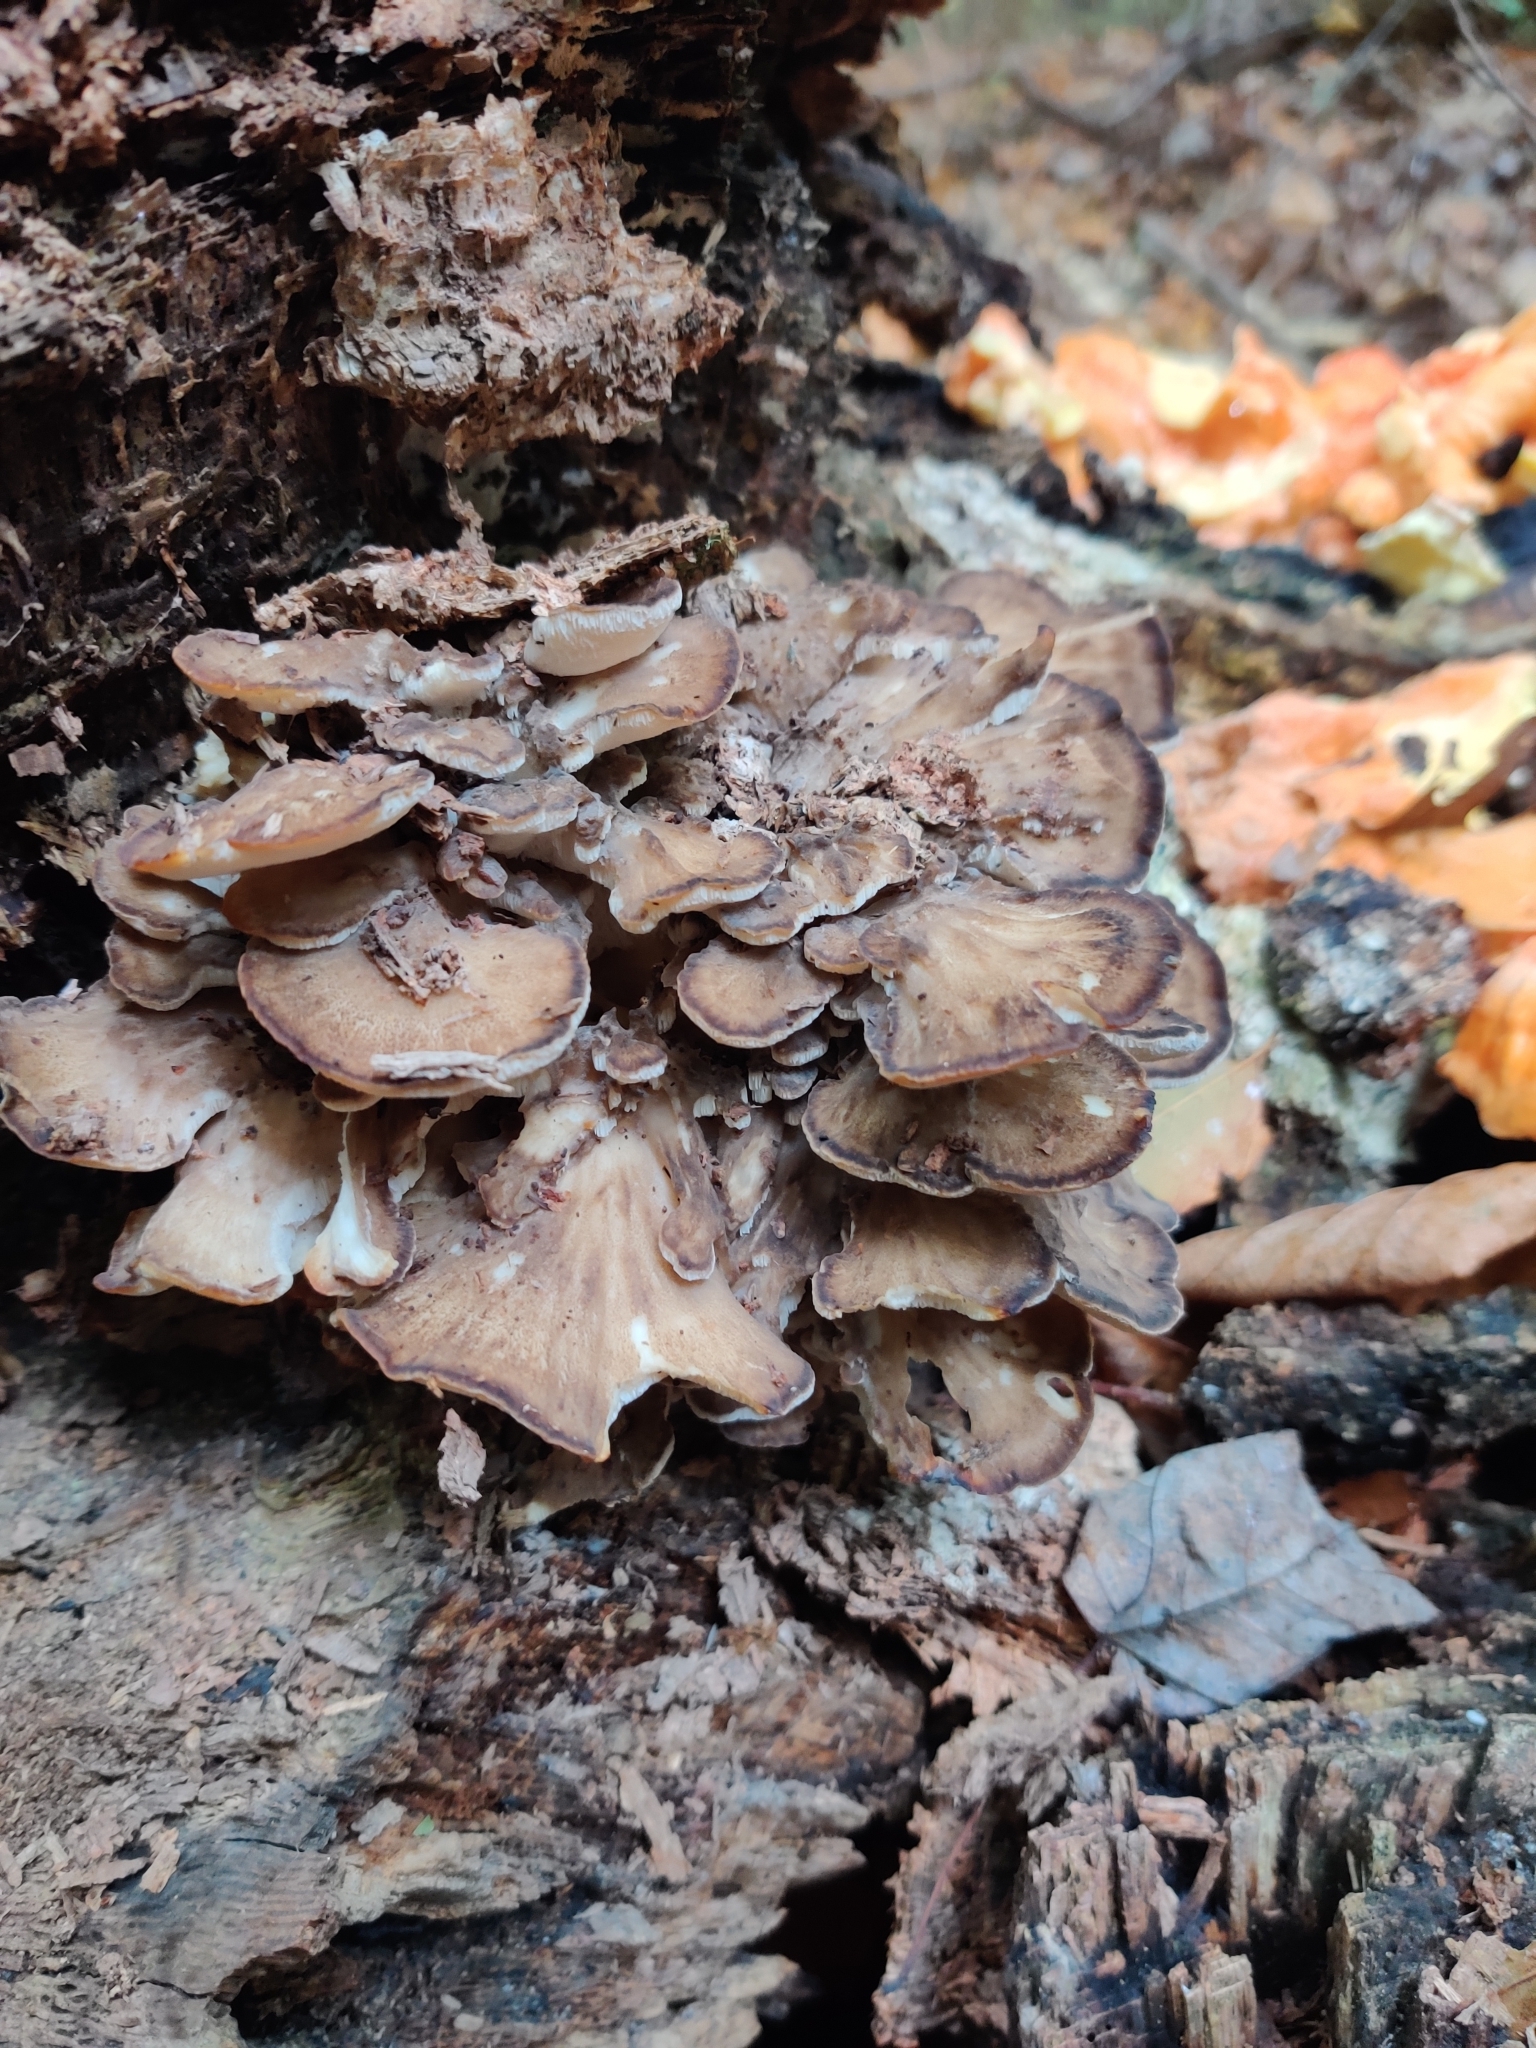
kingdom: Fungi
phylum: Basidiomycota
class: Agaricomycetes
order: Polyporales
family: Grifolaceae
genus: Grifola
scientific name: Grifola frondosa
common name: Hen of the woods
